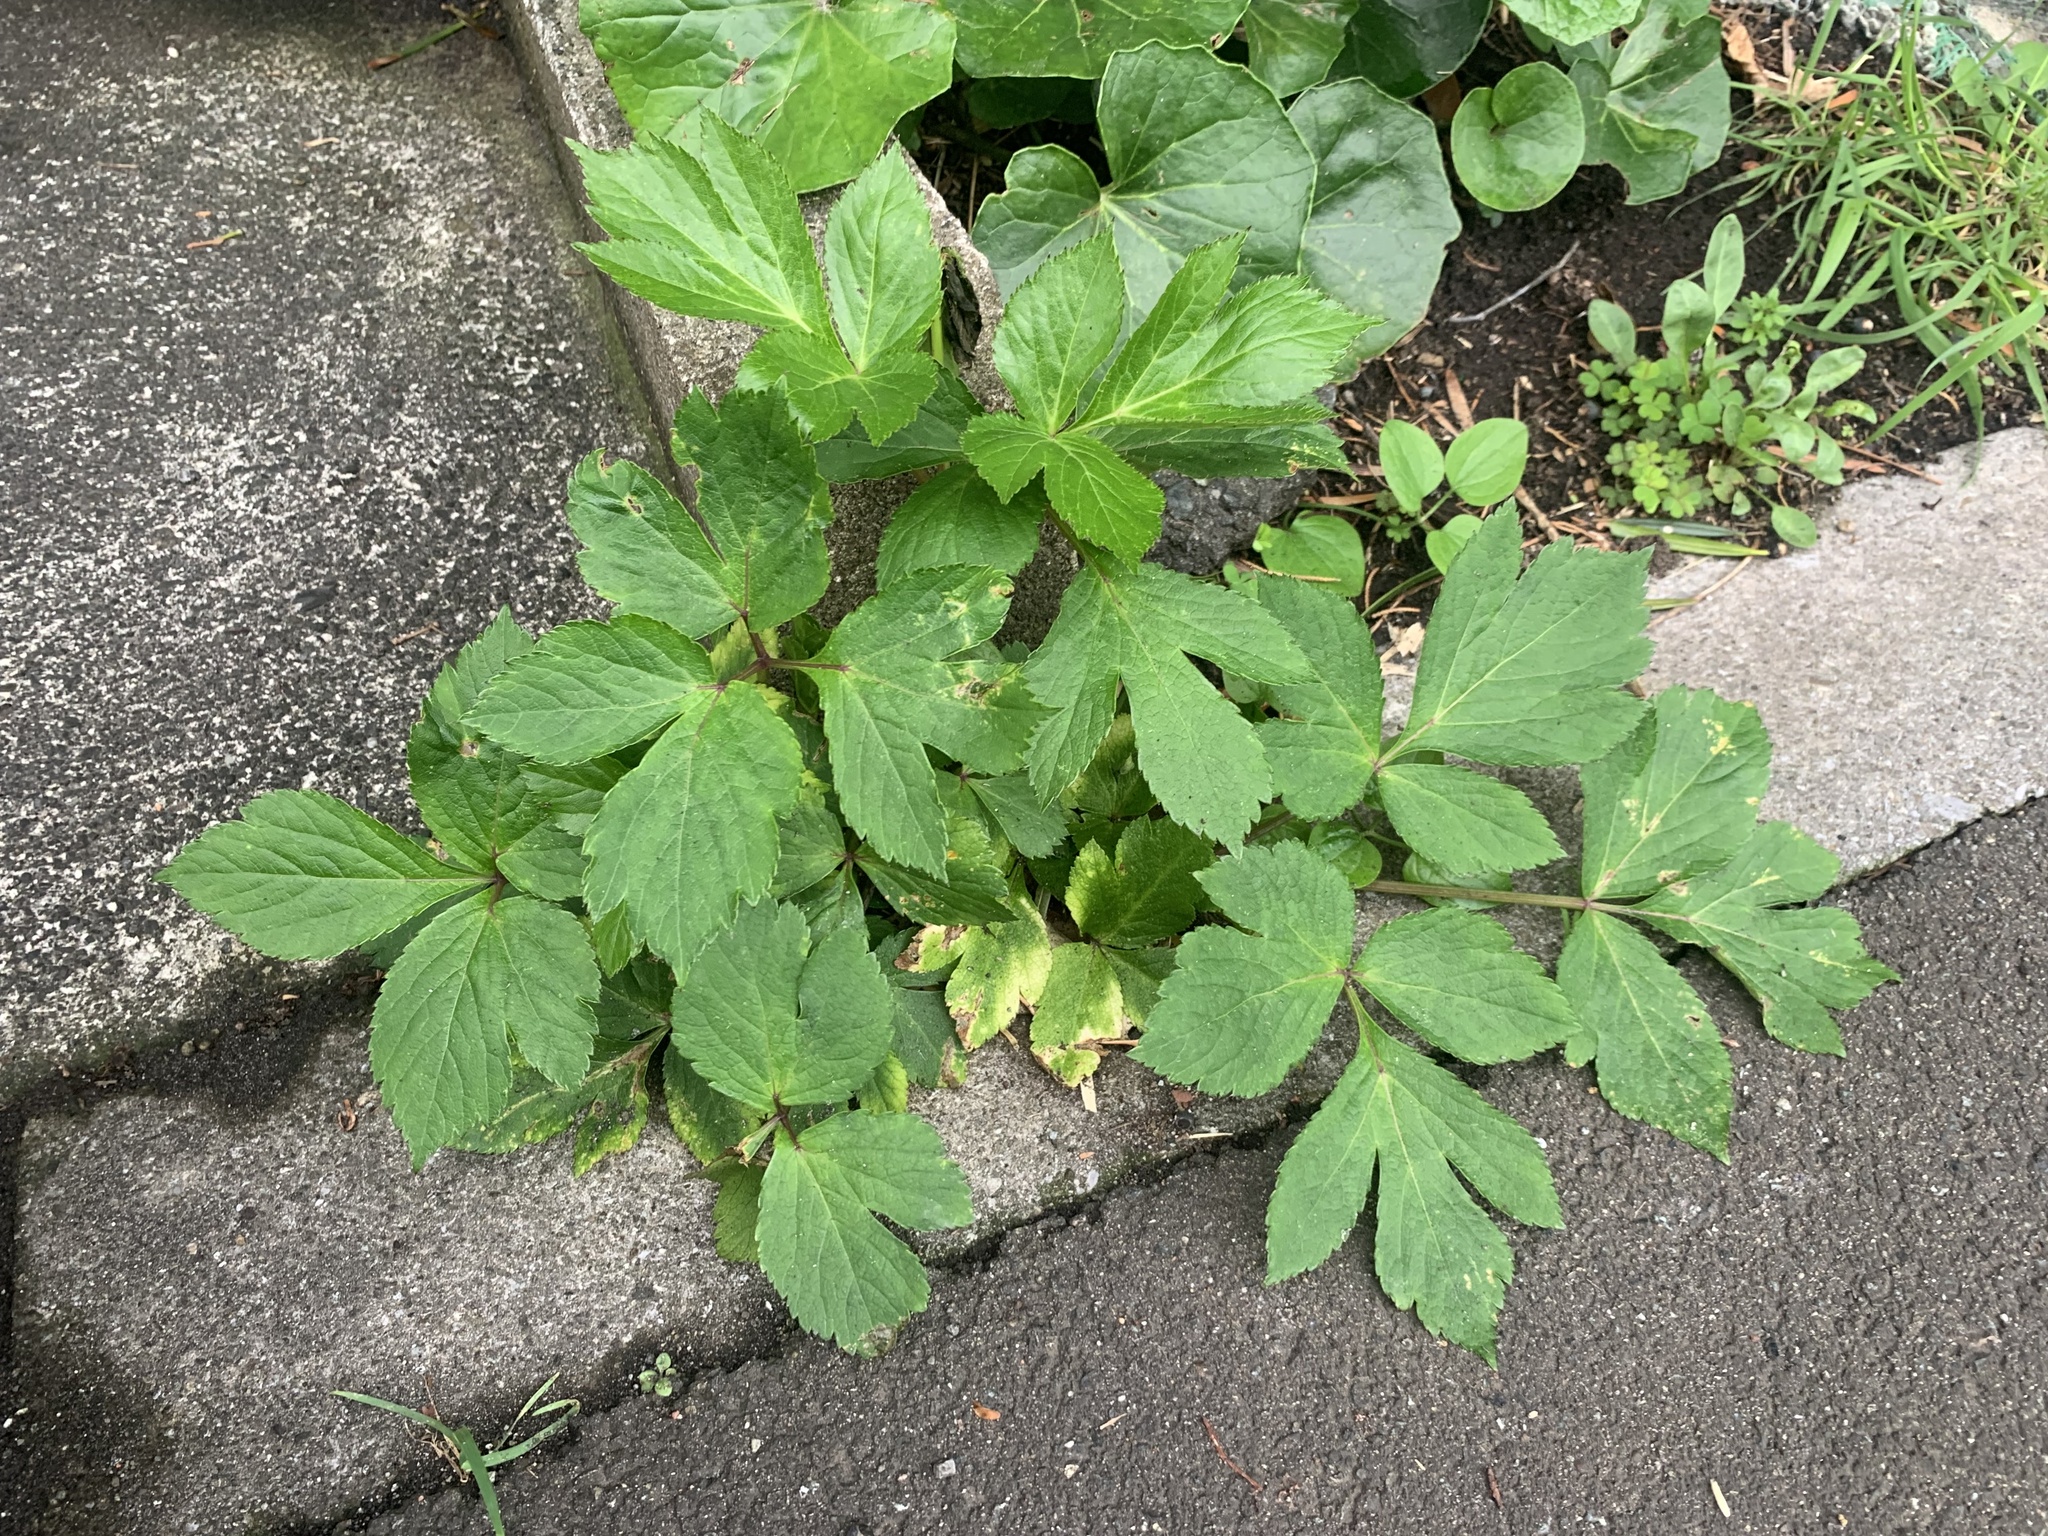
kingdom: Plantae
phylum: Tracheophyta
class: Magnoliopsida
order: Apiales
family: Apiaceae
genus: Angelica
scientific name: Angelica keiskei
